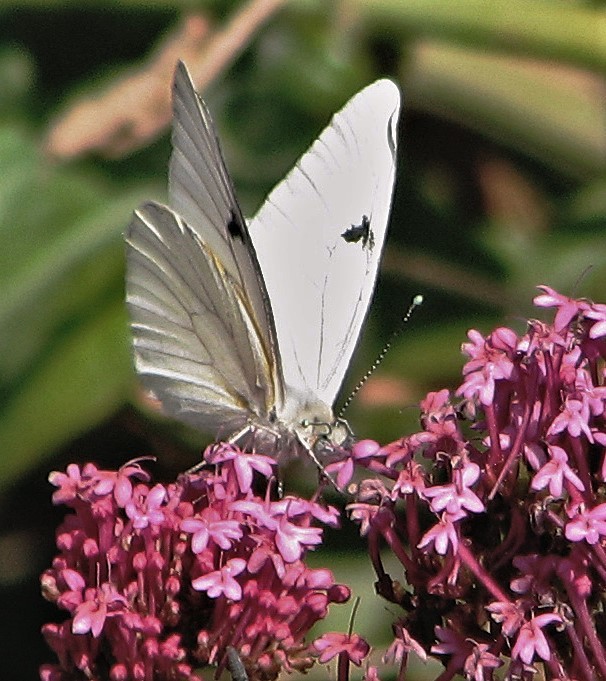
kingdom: Animalia
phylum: Arthropoda
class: Insecta
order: Lepidoptera
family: Pieridae
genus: Tatochila
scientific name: Tatochila mercedis
